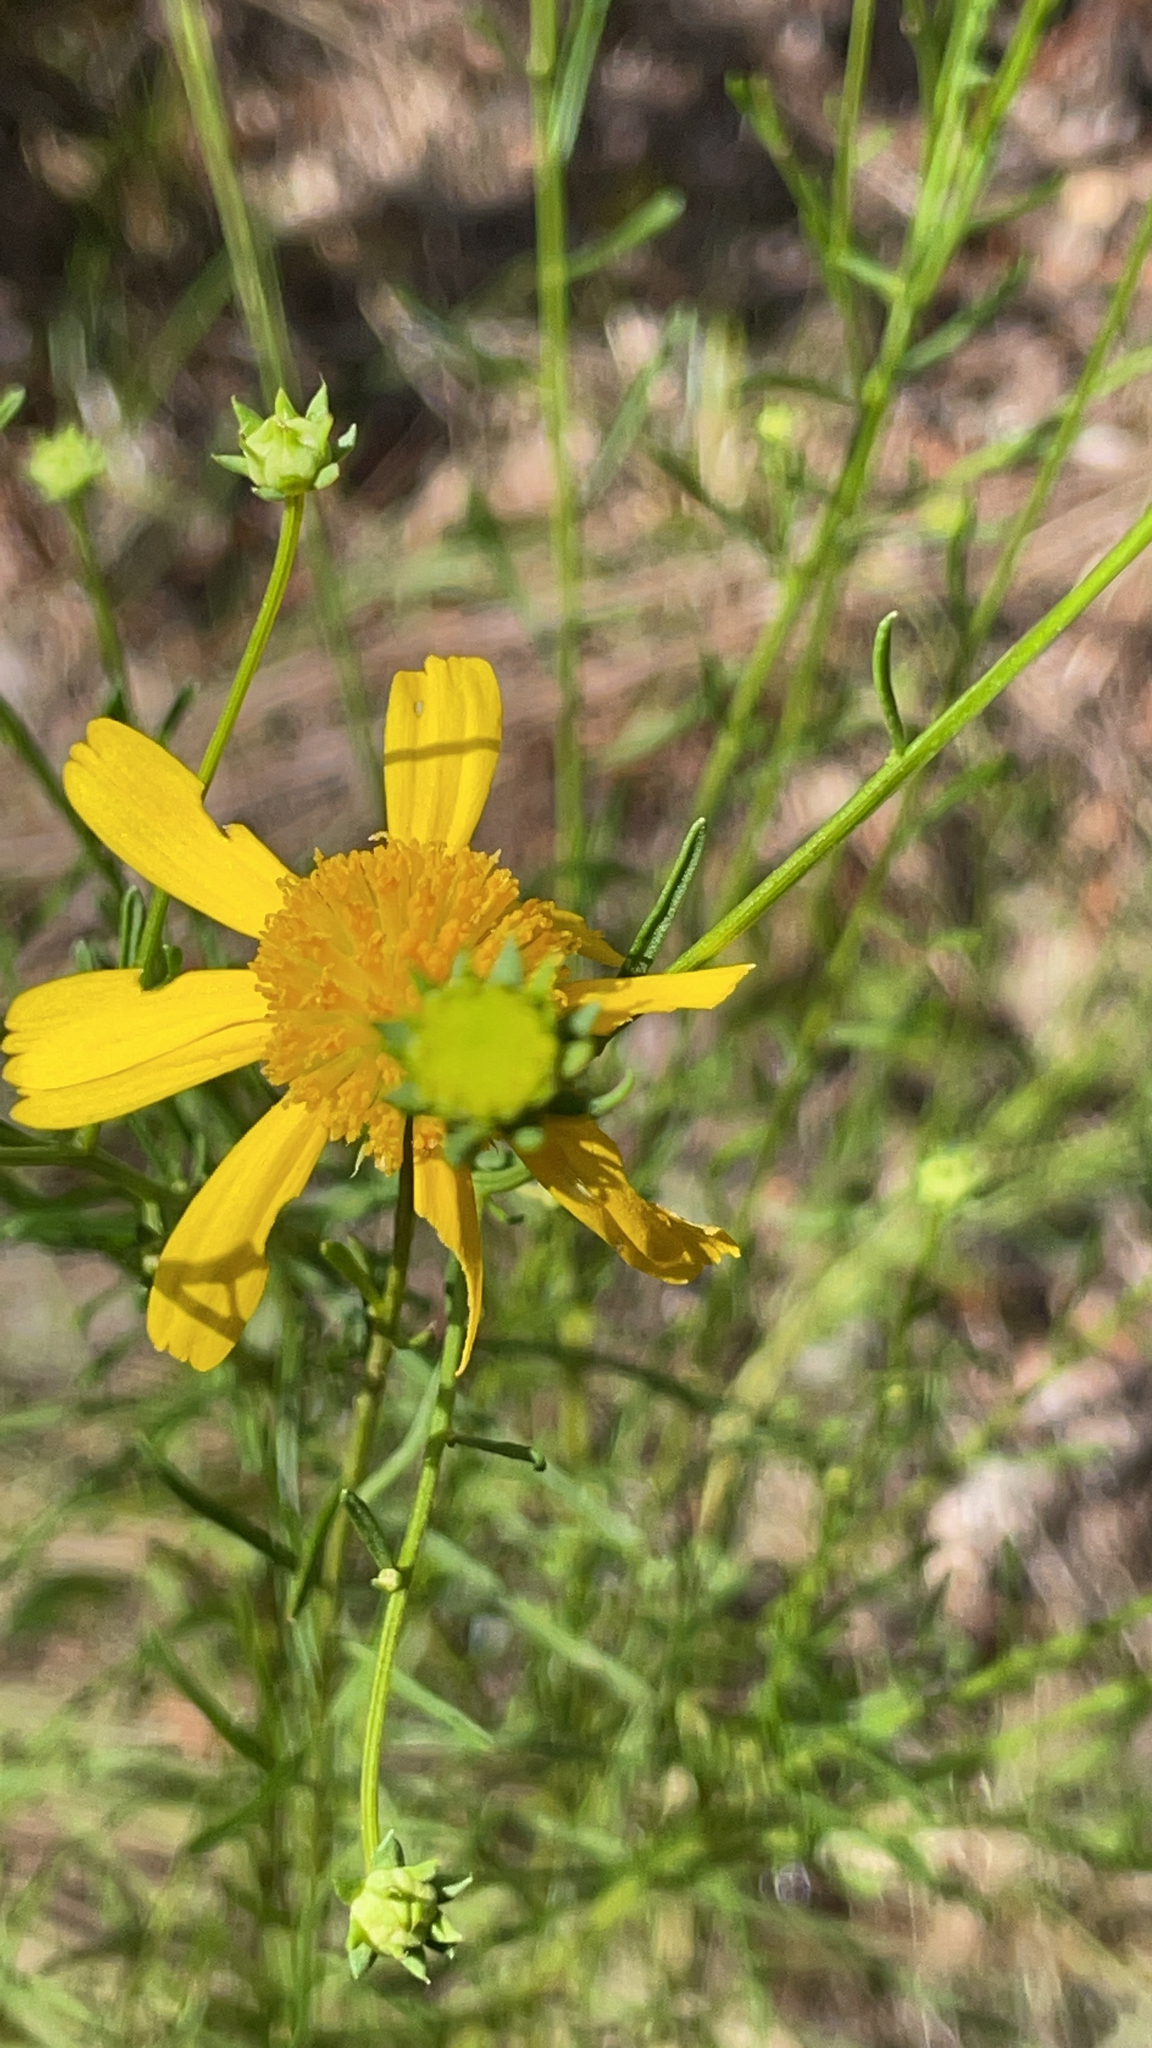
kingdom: Plantae
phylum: Tracheophyta
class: Magnoliopsida
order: Asterales
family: Asteraceae
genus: Helenium
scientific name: Helenium amarum
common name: Bitter sneezeweed
